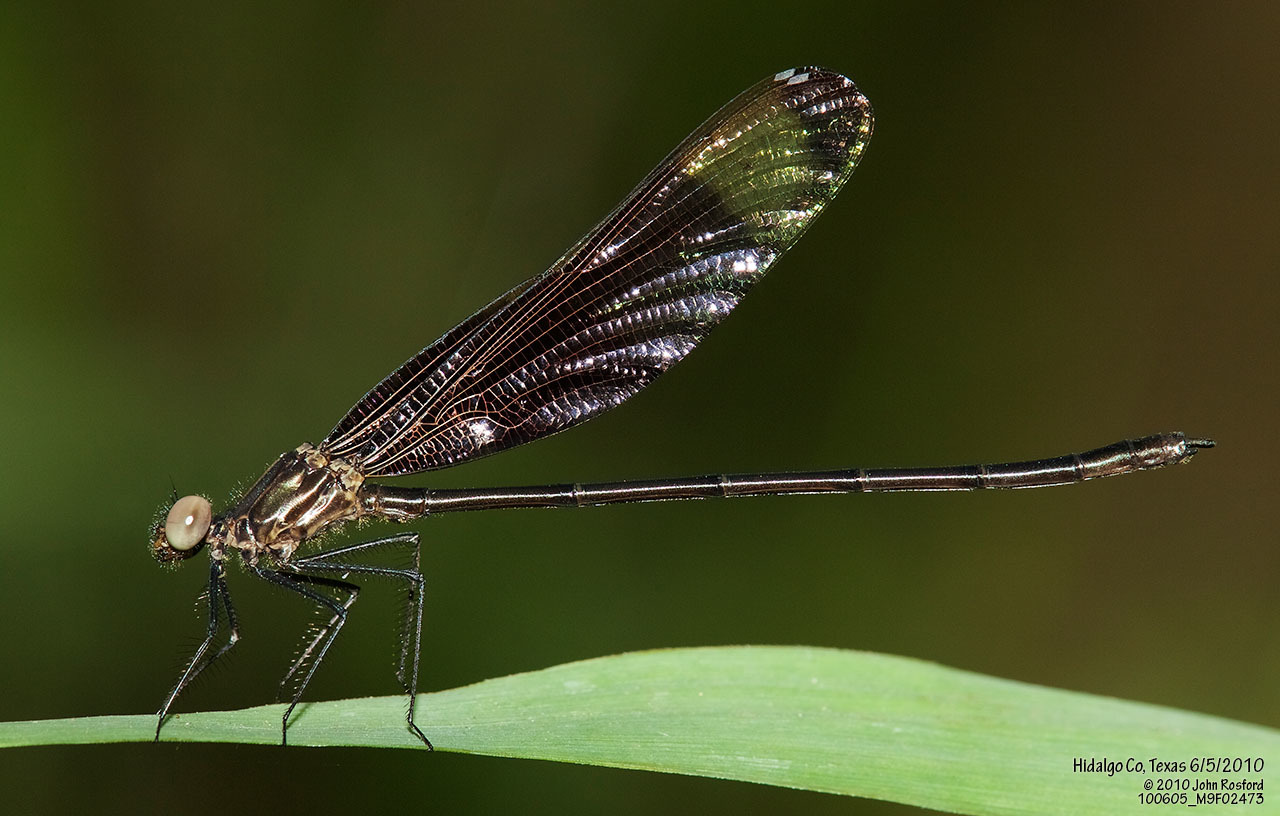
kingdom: Animalia
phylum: Arthropoda
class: Insecta
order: Odonata
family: Calopterygidae
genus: Hetaerina
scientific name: Hetaerina titia
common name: Smoky rubyspot
